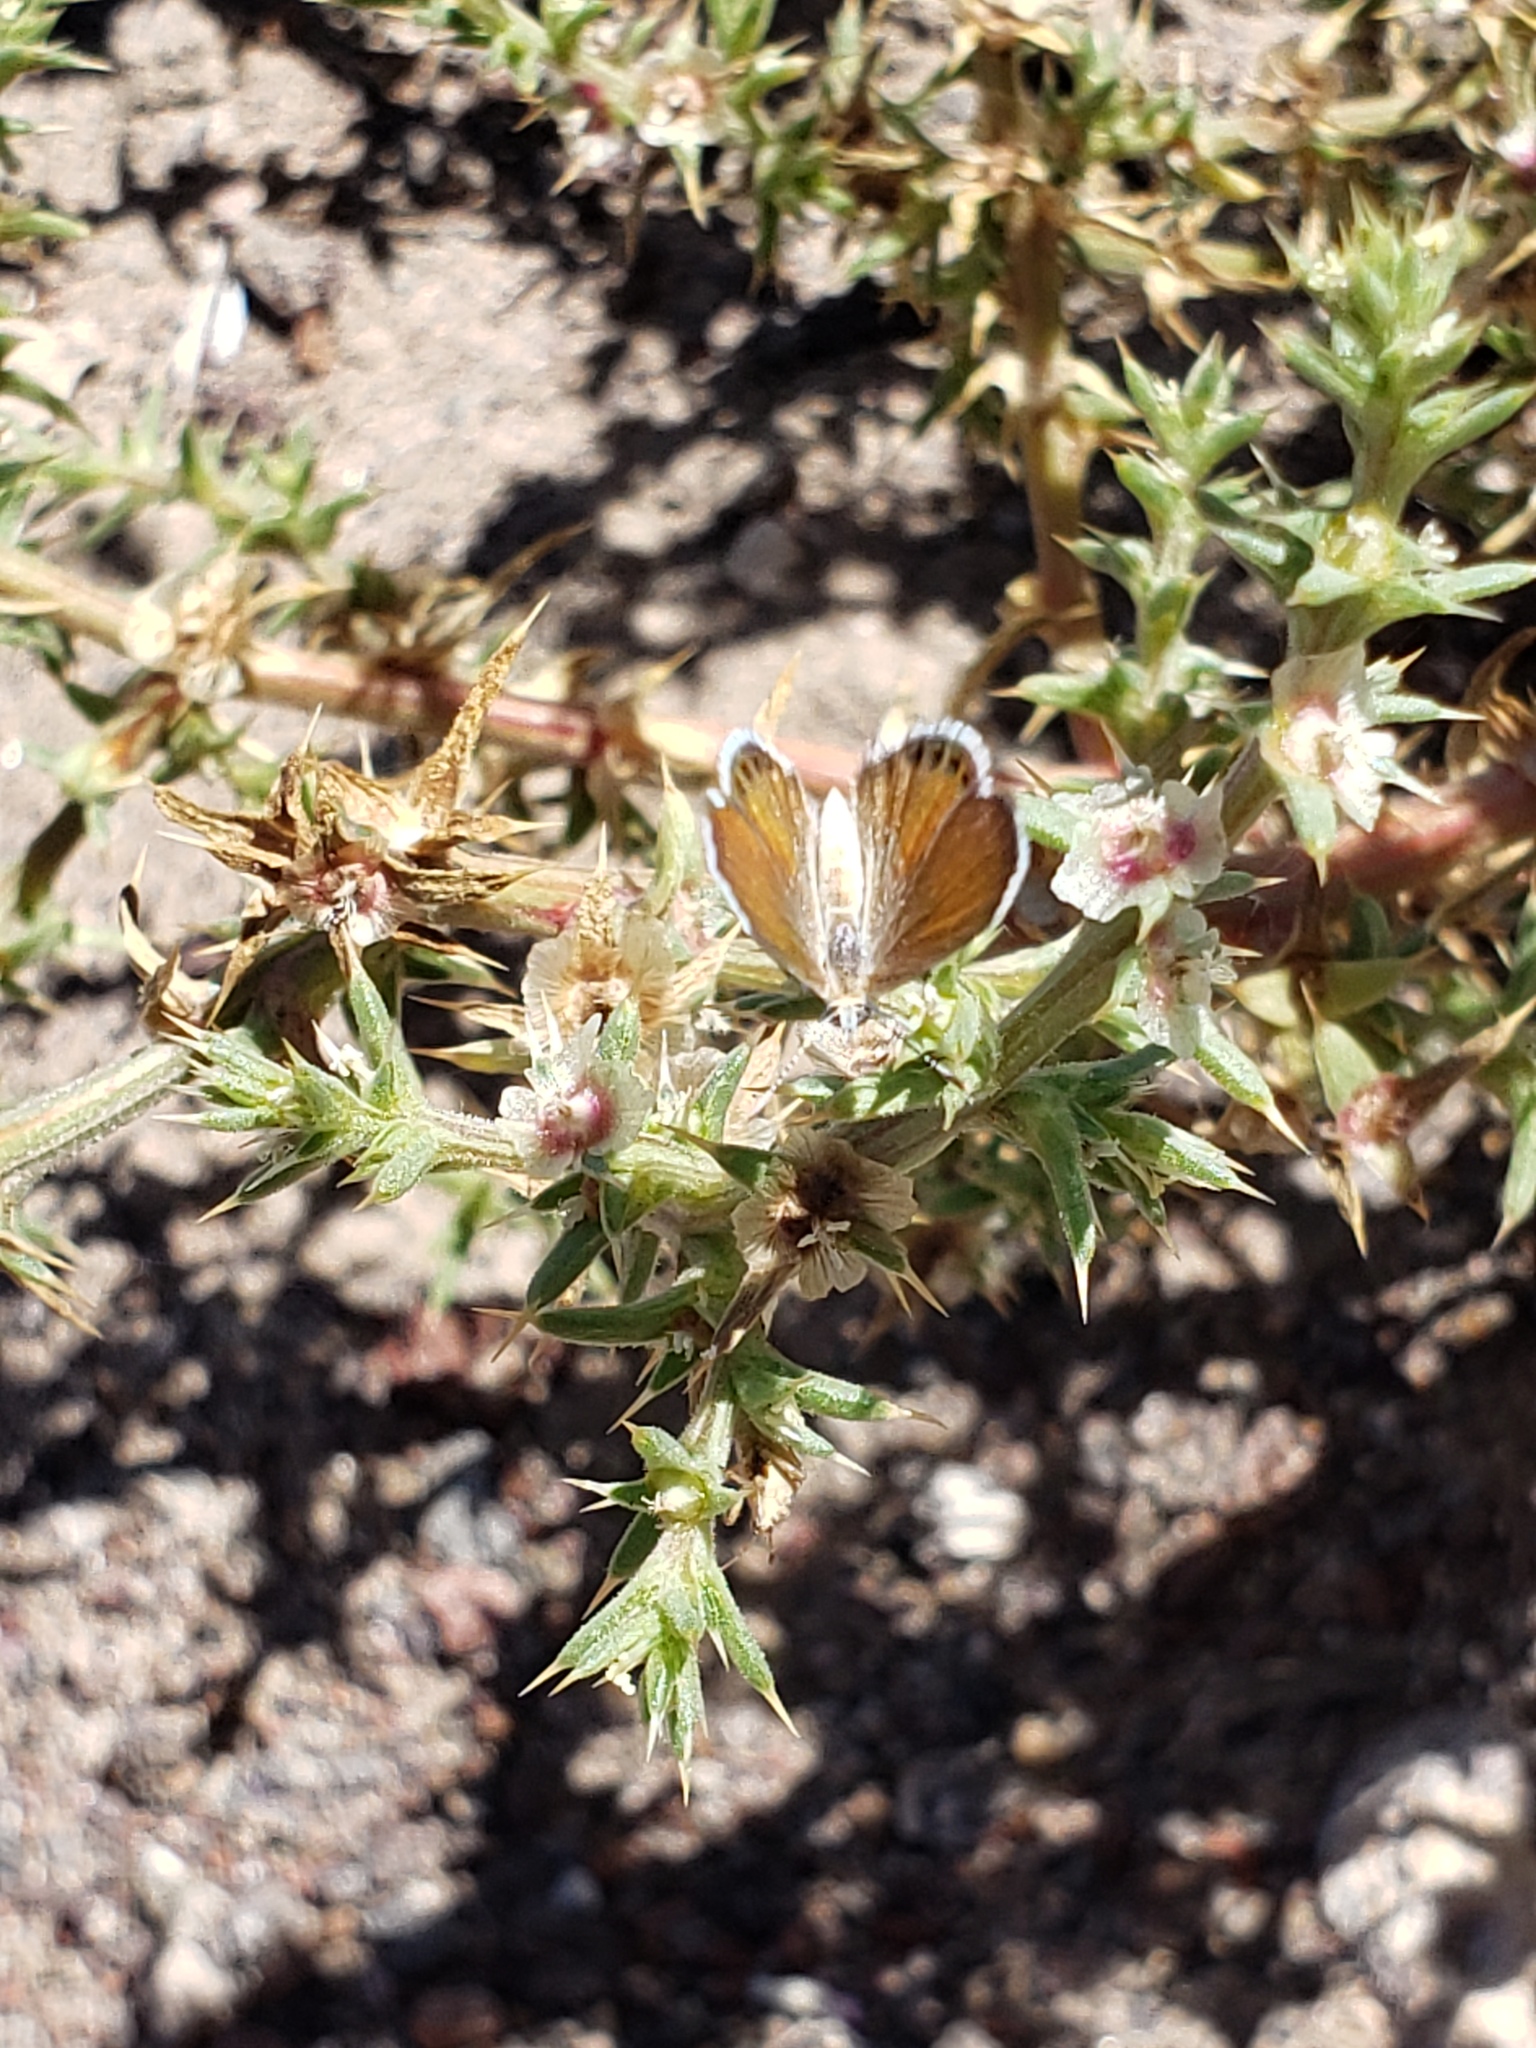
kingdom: Animalia
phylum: Arthropoda
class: Insecta
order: Lepidoptera
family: Lycaenidae
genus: Brephidium
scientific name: Brephidium exilis
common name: Pygmy blue
